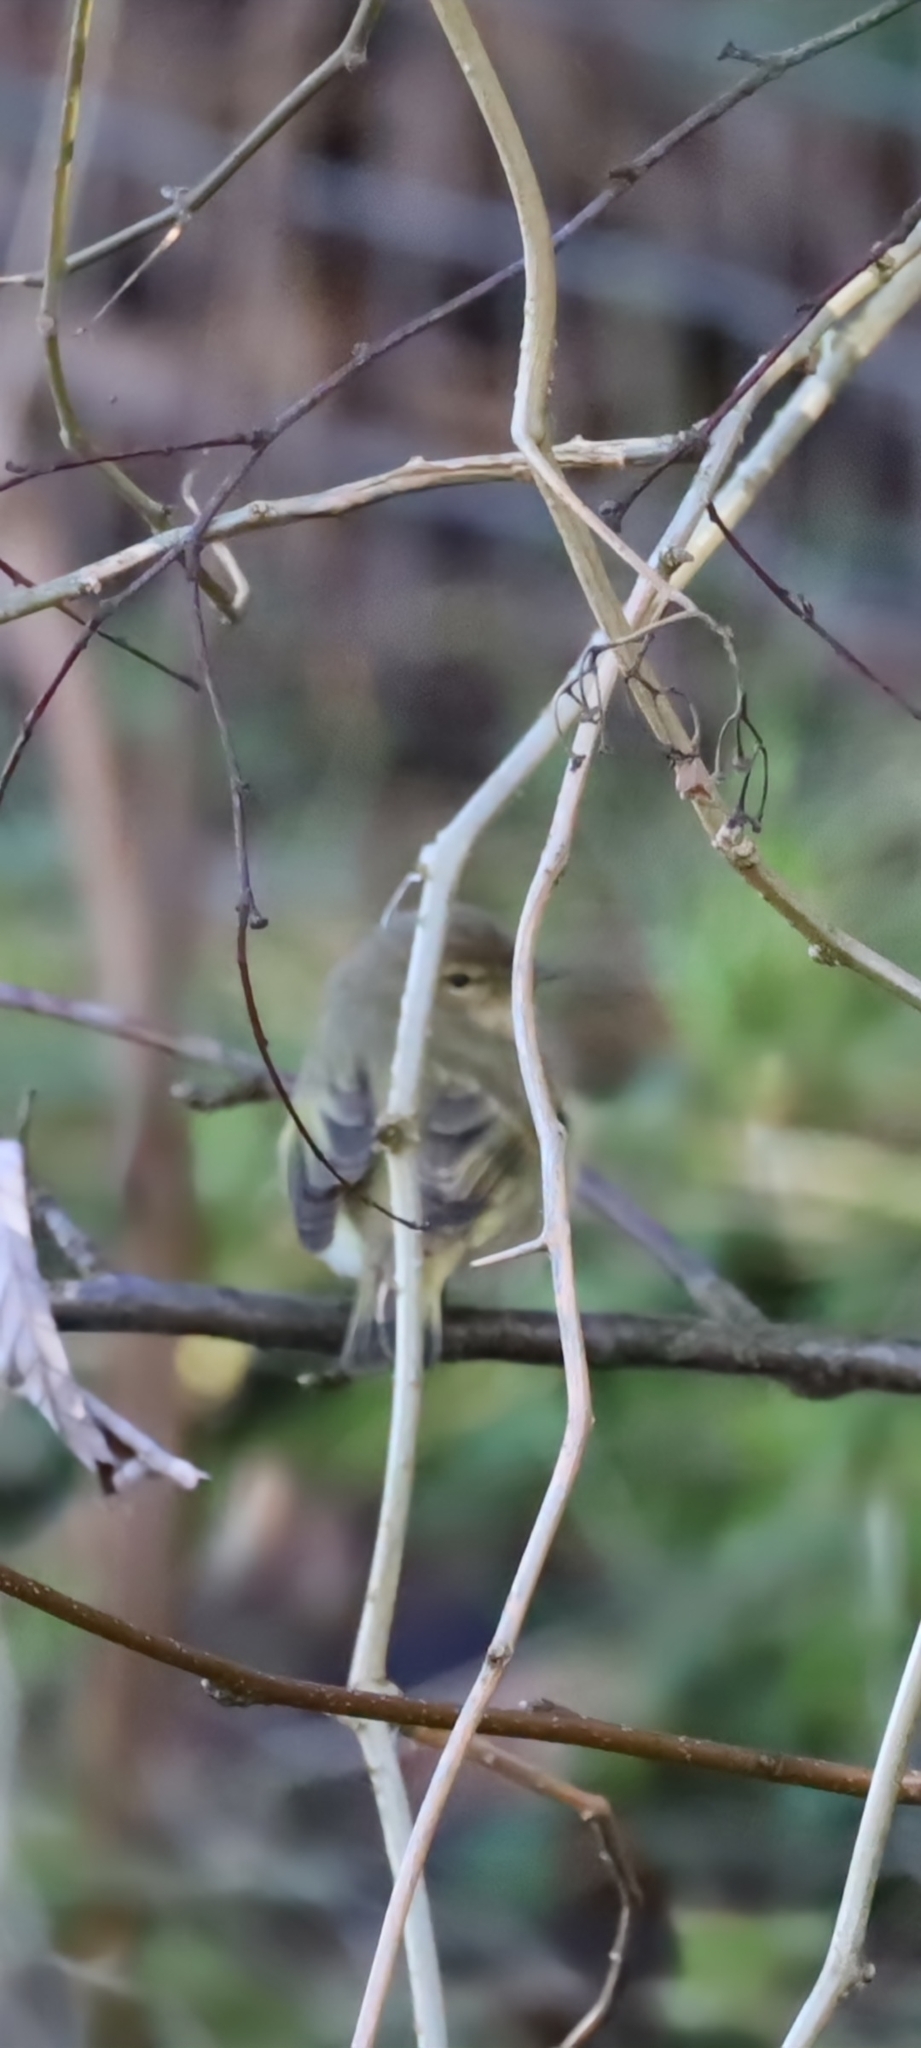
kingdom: Animalia
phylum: Chordata
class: Aves
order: Passeriformes
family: Phylloscopidae
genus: Phylloscopus
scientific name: Phylloscopus collybita
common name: Common chiffchaff
